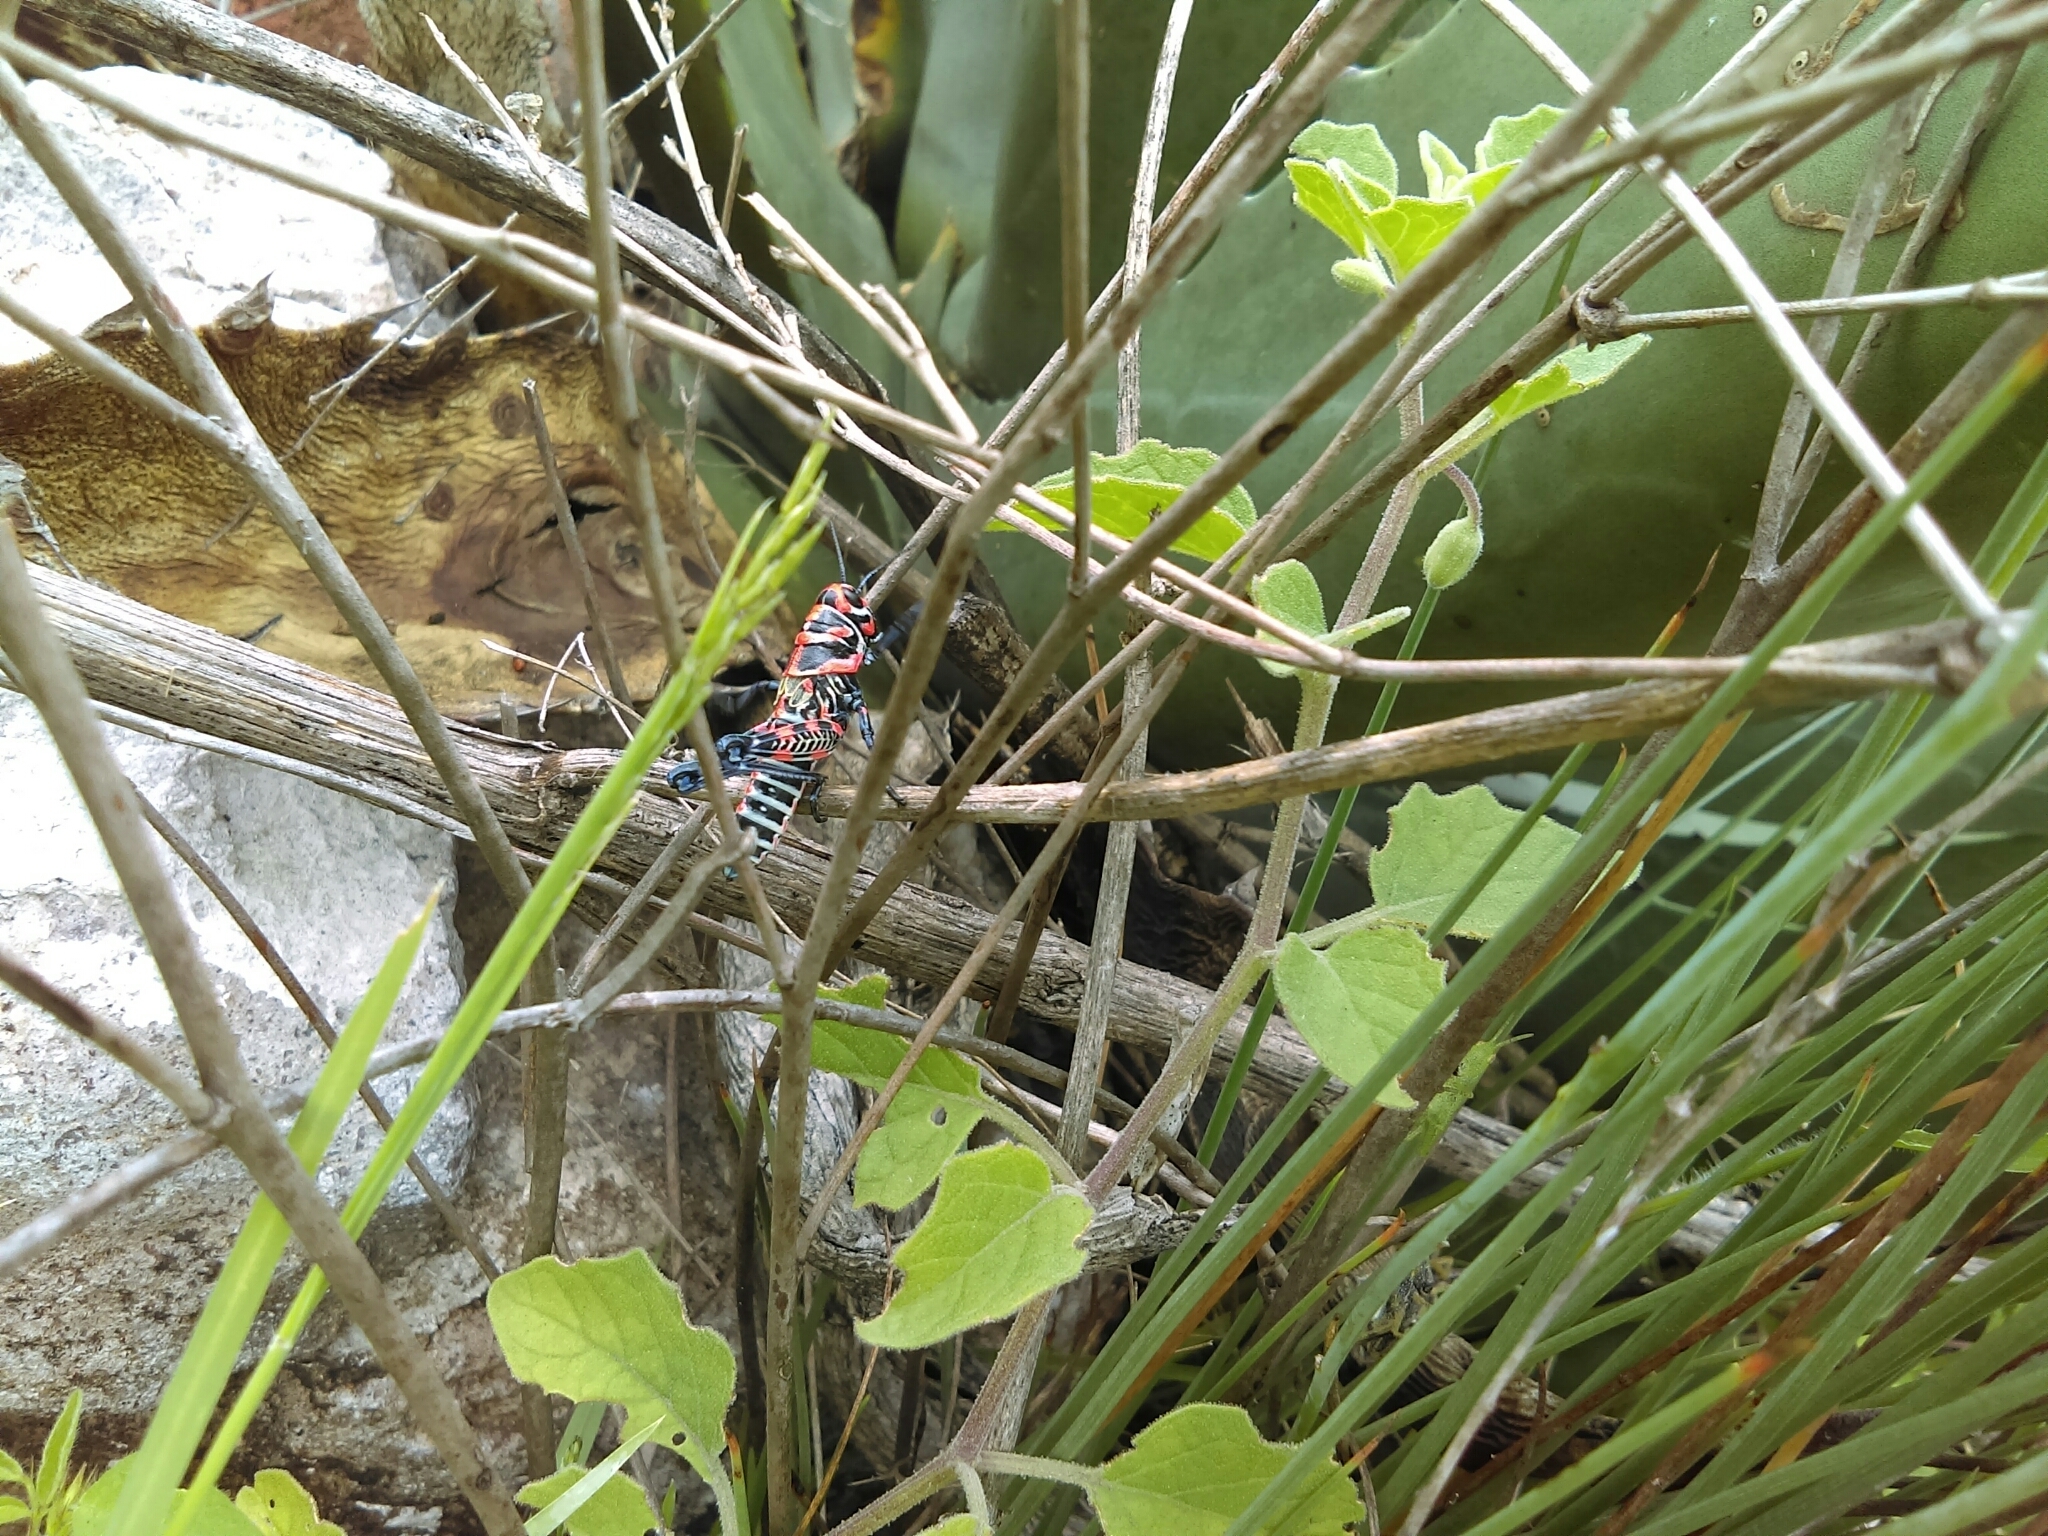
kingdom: Animalia
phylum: Arthropoda
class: Insecta
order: Orthoptera
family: Acrididae
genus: Dactylotum
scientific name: Dactylotum bicolor
